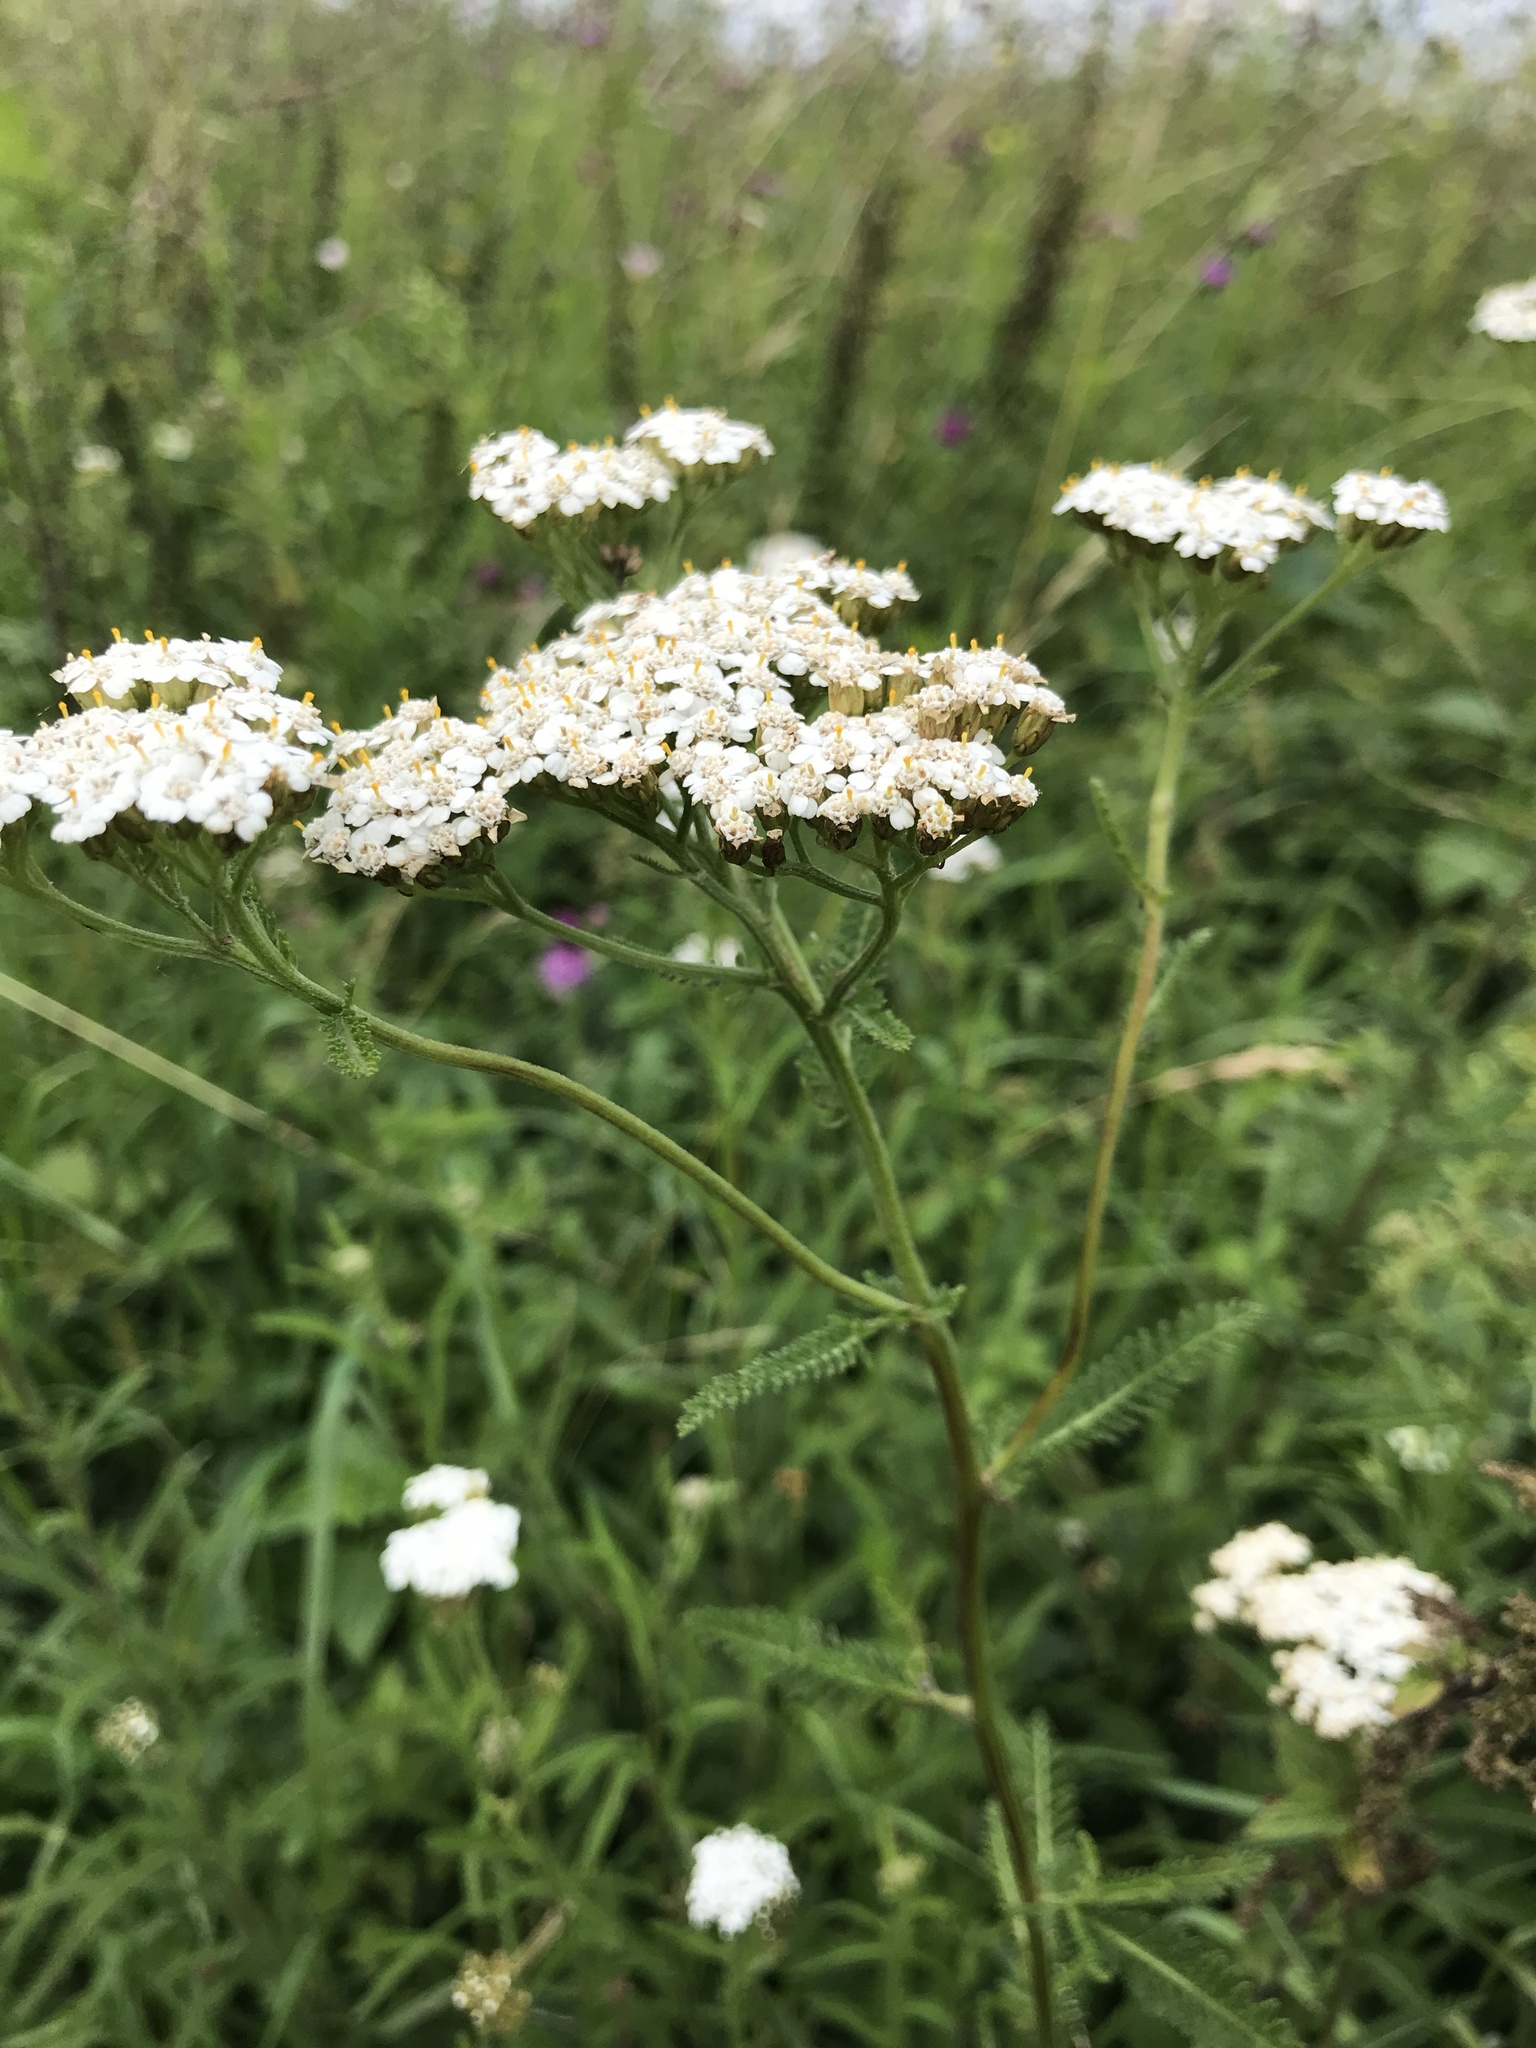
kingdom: Plantae
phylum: Tracheophyta
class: Magnoliopsida
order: Asterales
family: Asteraceae
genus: Achillea
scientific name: Achillea millefolium
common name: Yarrow
